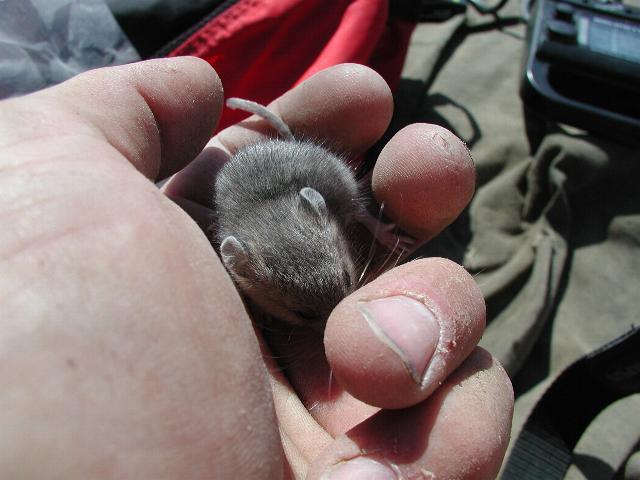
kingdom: Animalia
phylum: Chordata
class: Mammalia
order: Rodentia
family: Cricetidae
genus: Peromyscus
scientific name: Peromyscus maniculatus
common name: Deer mouse
